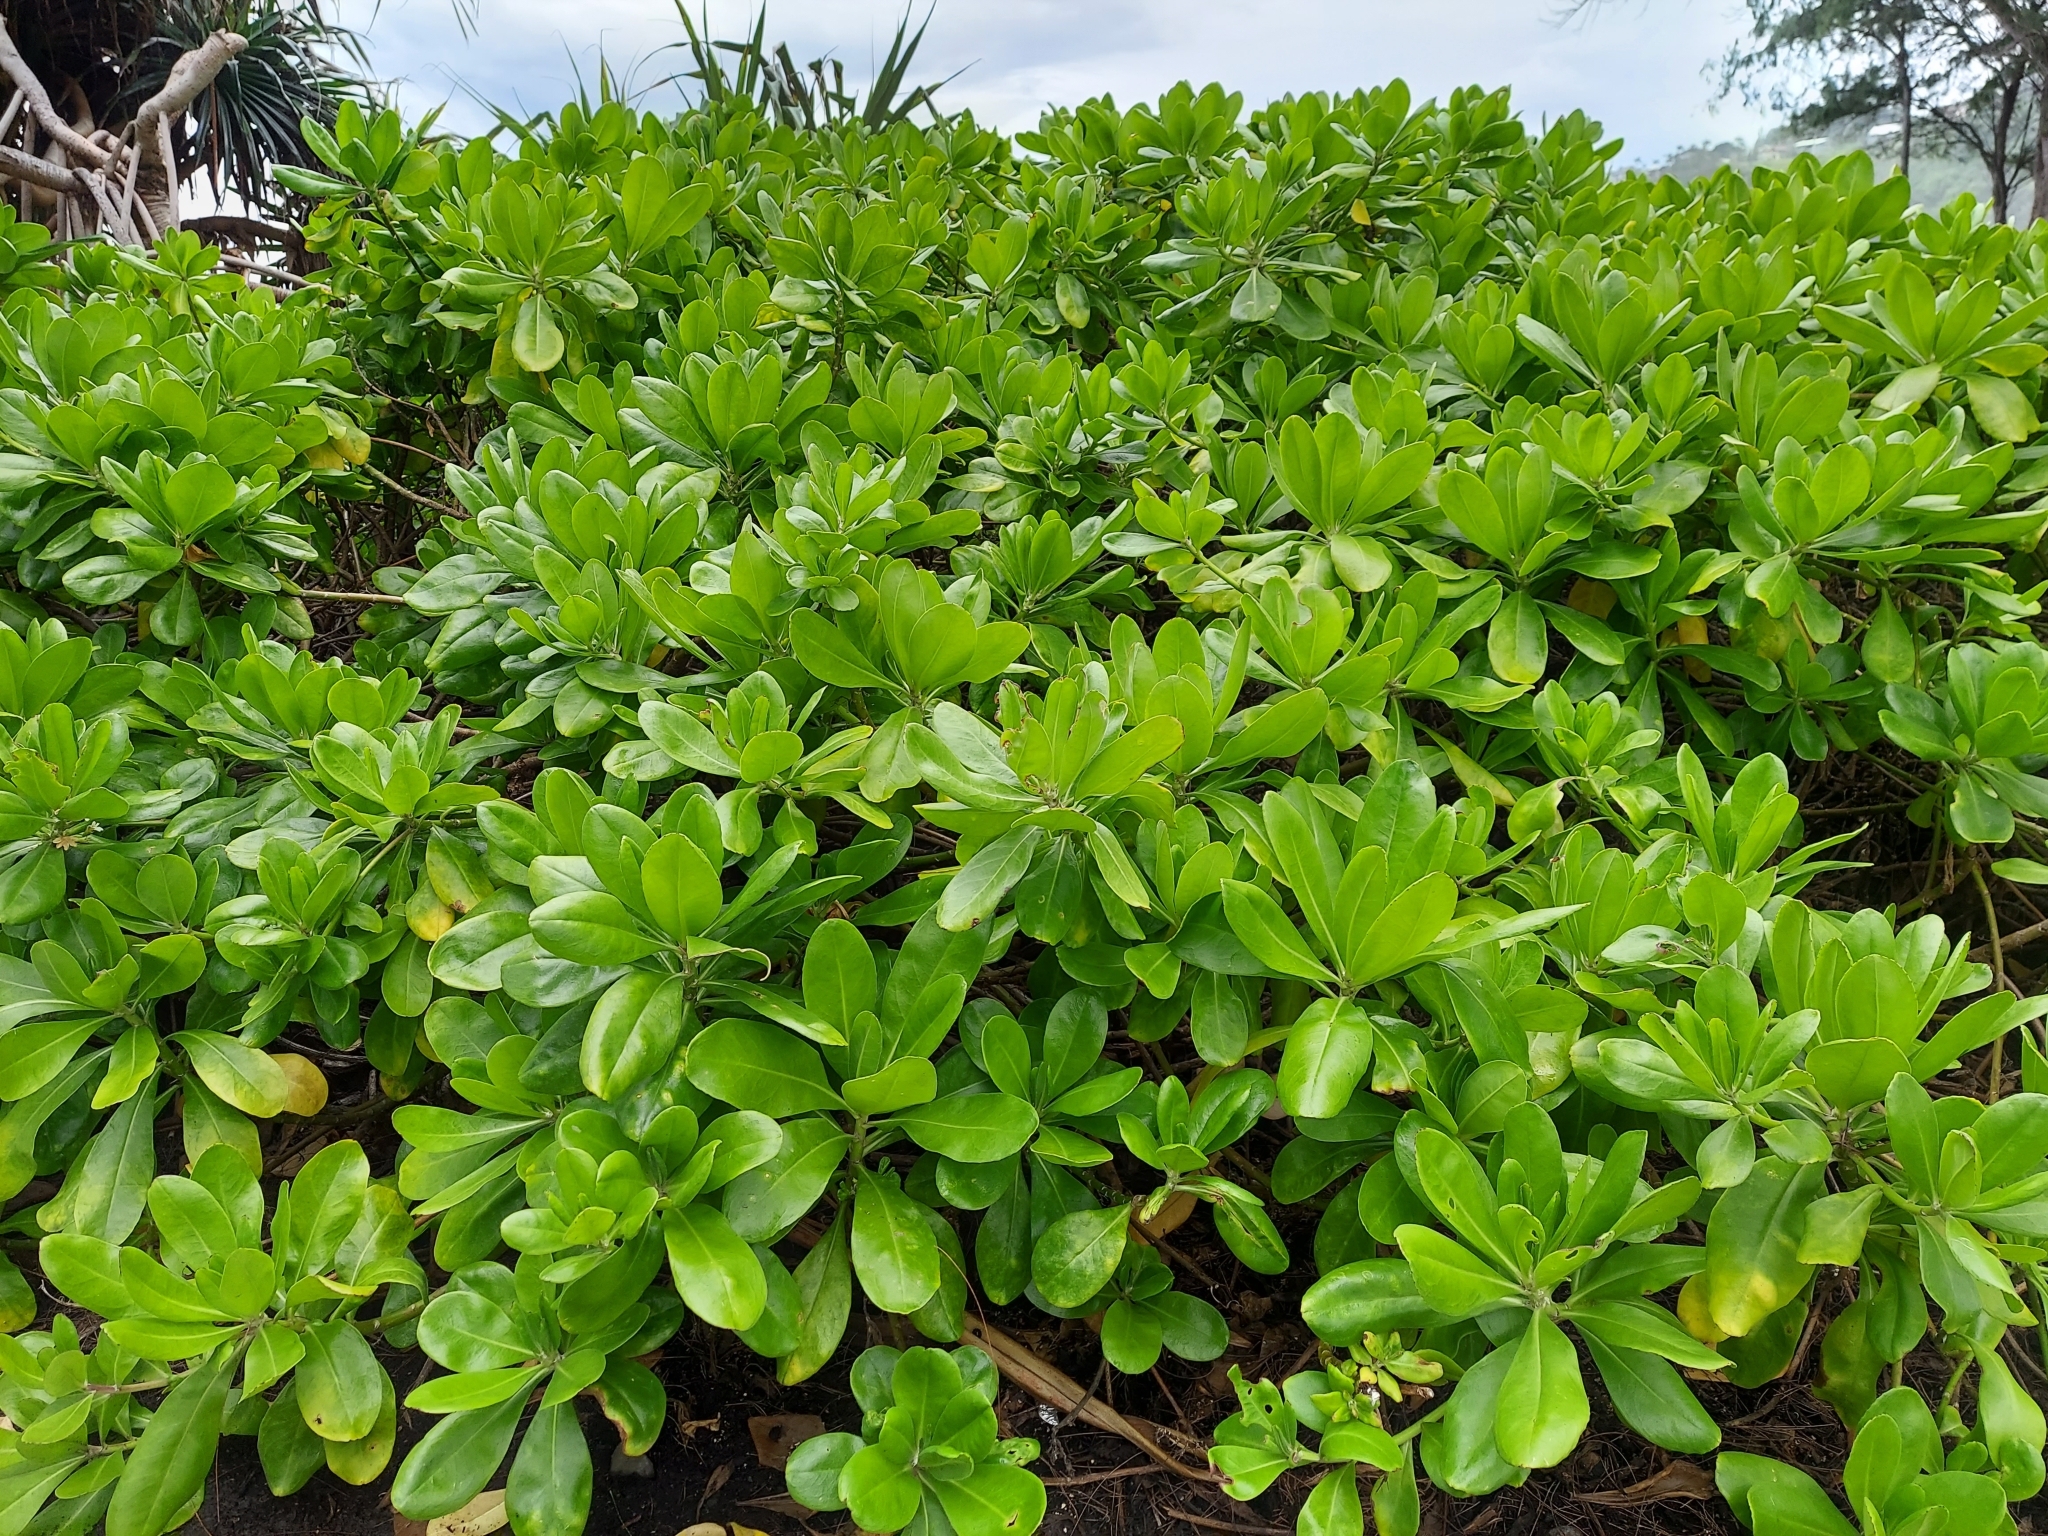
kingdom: Plantae
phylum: Tracheophyta
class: Magnoliopsida
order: Asterales
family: Goodeniaceae
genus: Scaevola
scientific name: Scaevola taccada
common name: Sea lettucetree
